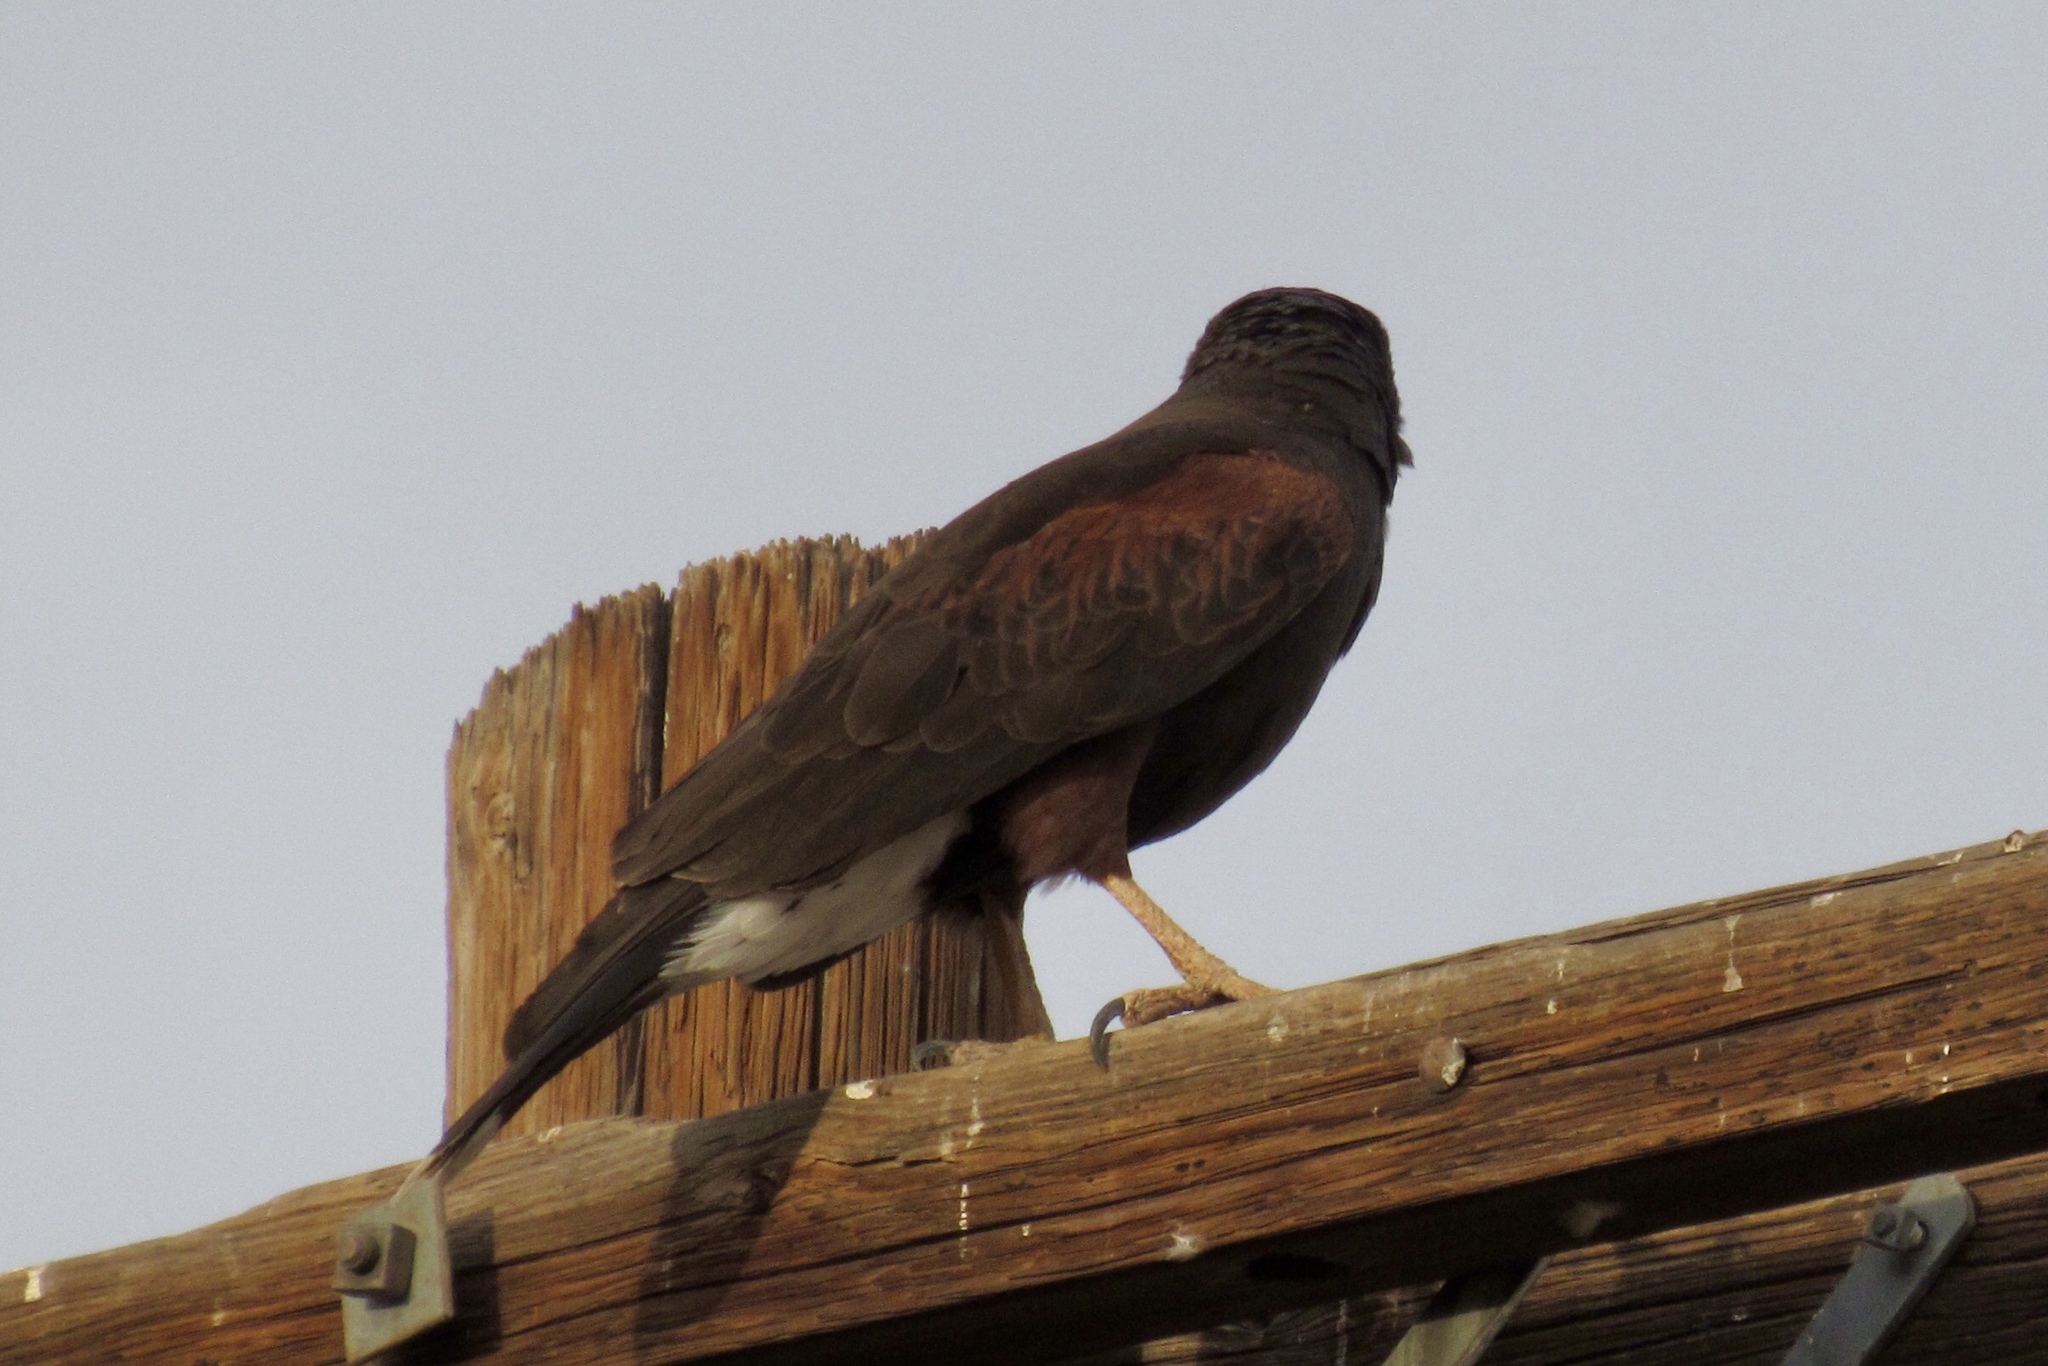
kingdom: Animalia
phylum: Chordata
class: Aves
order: Accipitriformes
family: Accipitridae
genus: Parabuteo
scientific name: Parabuteo unicinctus
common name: Harris's hawk
